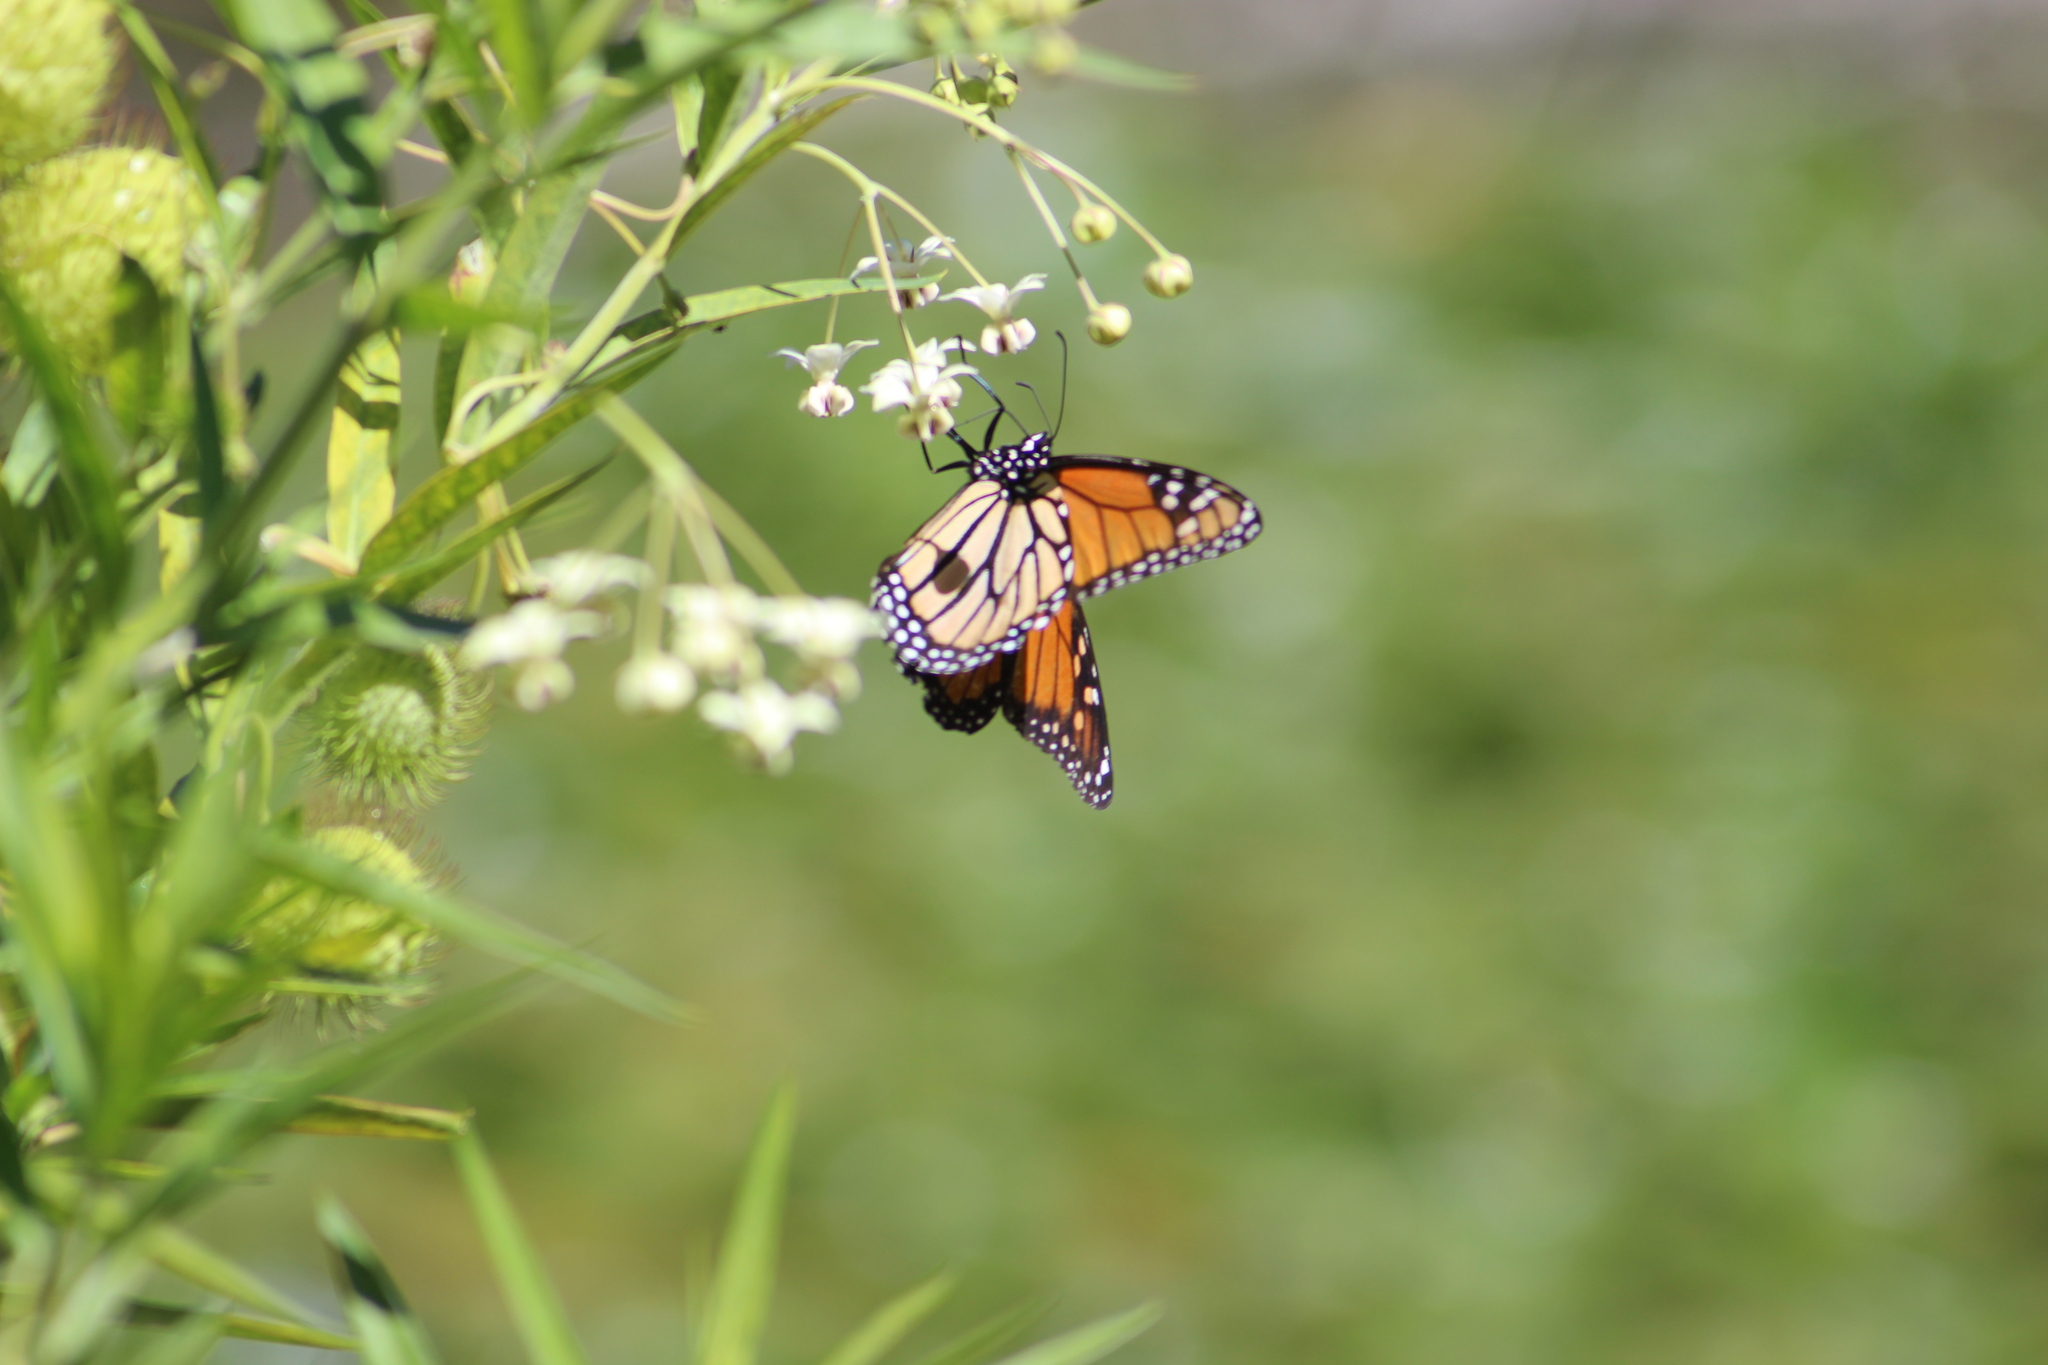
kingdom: Animalia
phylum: Arthropoda
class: Insecta
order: Lepidoptera
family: Nymphalidae
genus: Danaus
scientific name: Danaus plexippus
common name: Monarch
